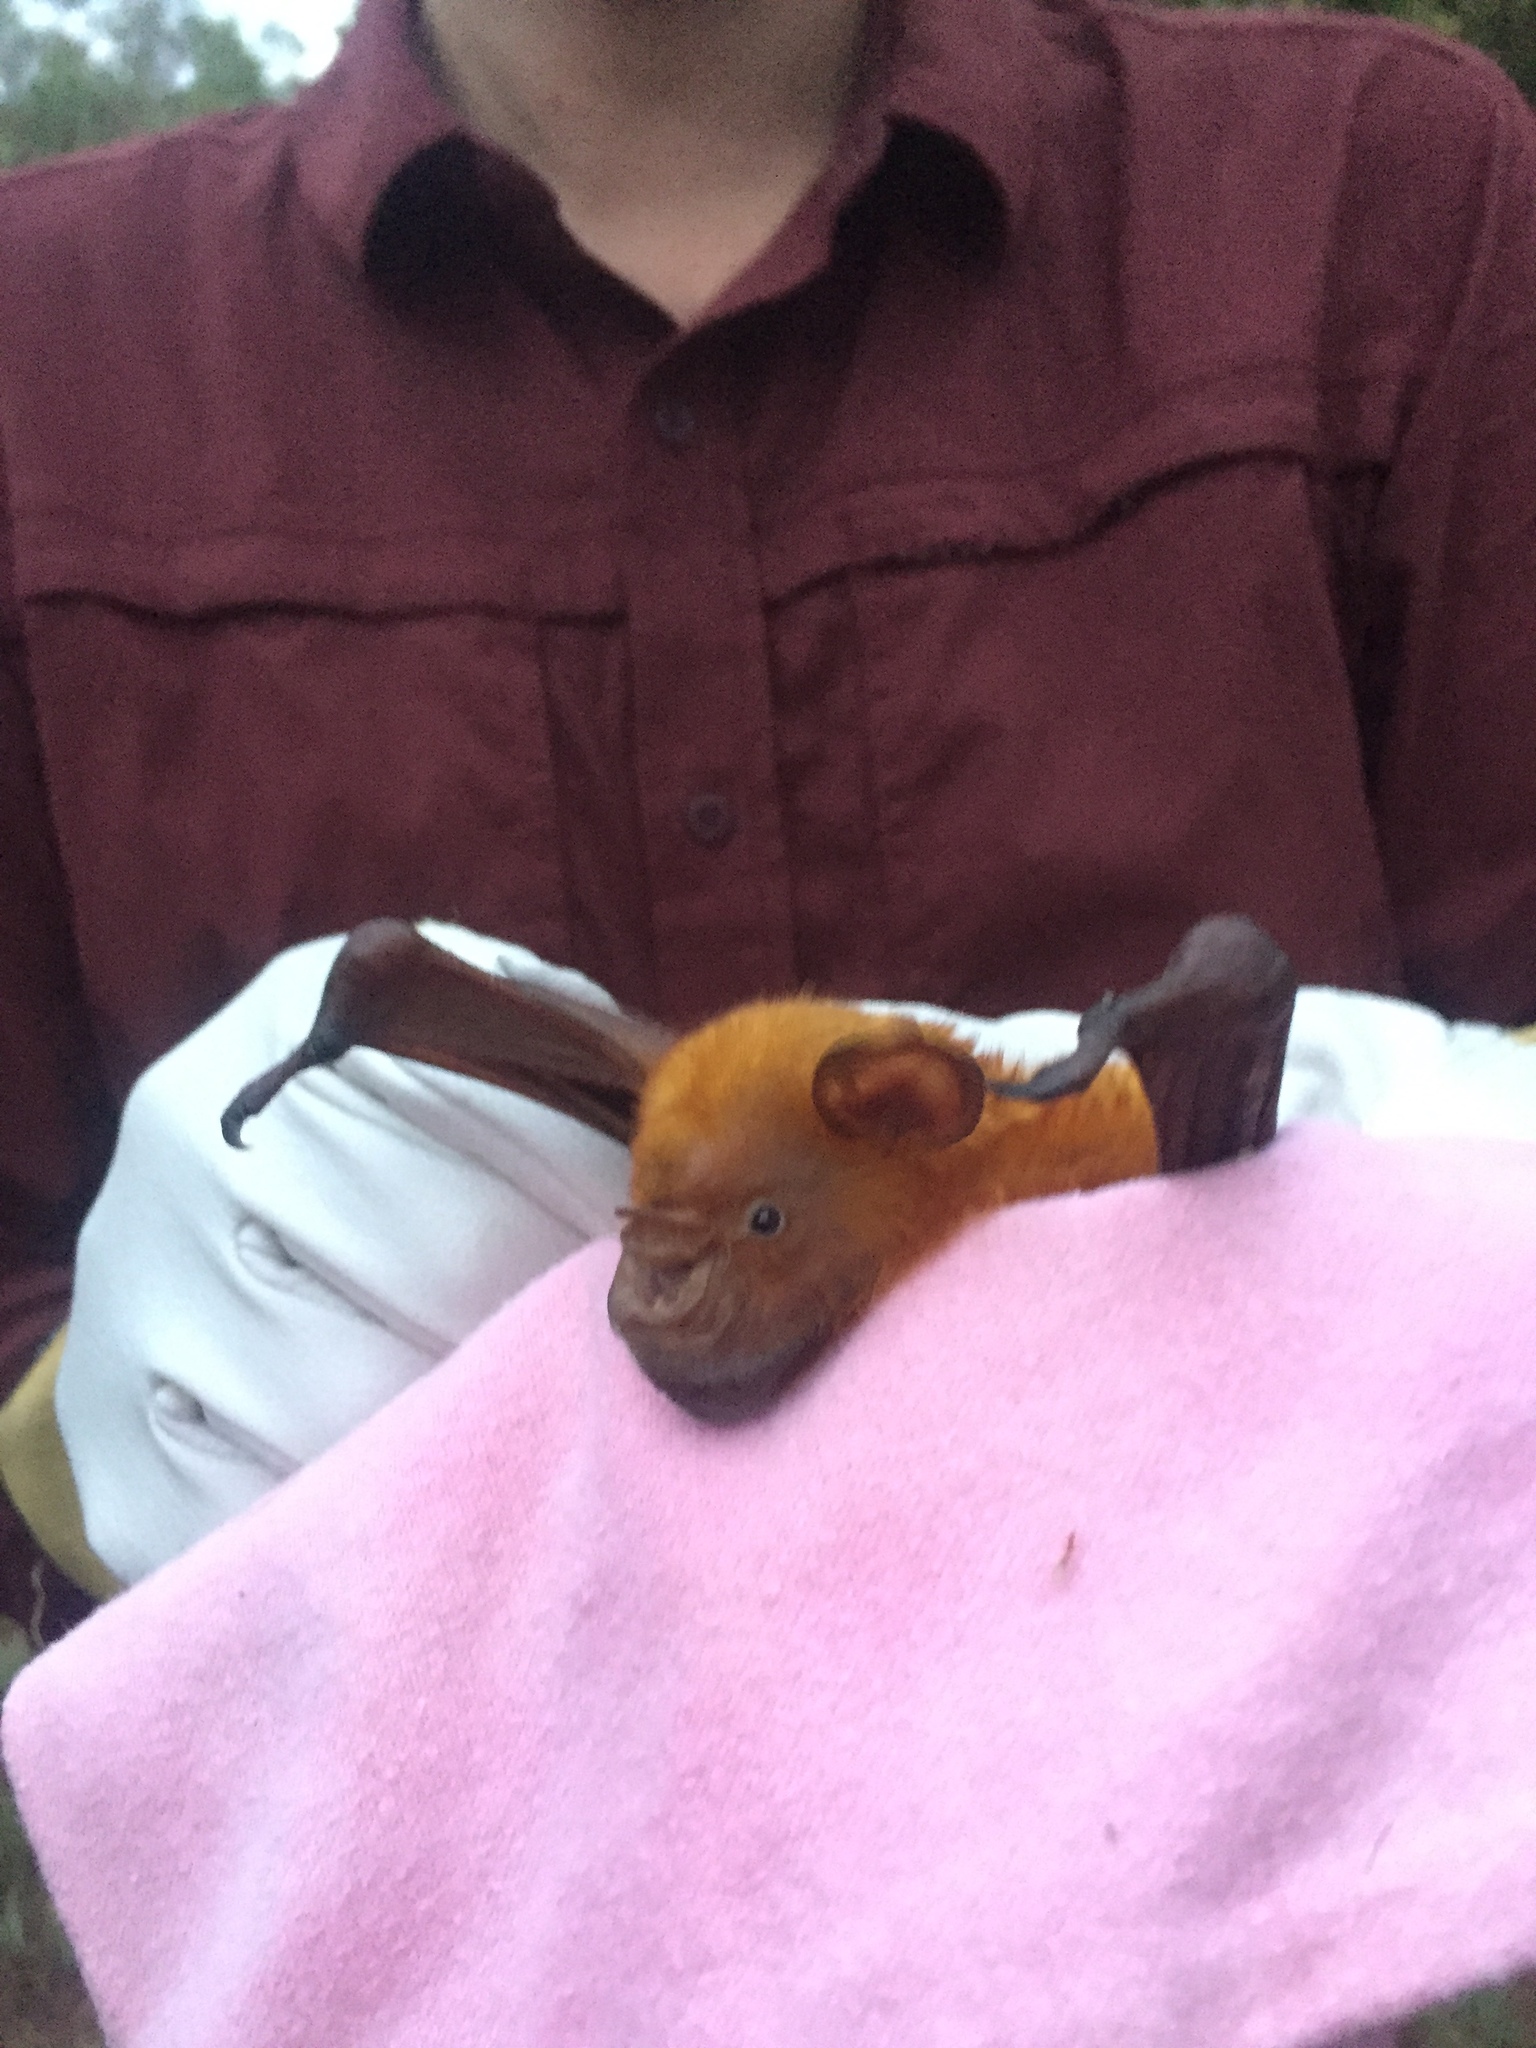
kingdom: Animalia
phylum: Chordata
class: Mammalia
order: Chiroptera
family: Hipposideridae
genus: Macronycteris
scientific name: Macronycteris vittatus
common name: Striped leaf-nosed bat
